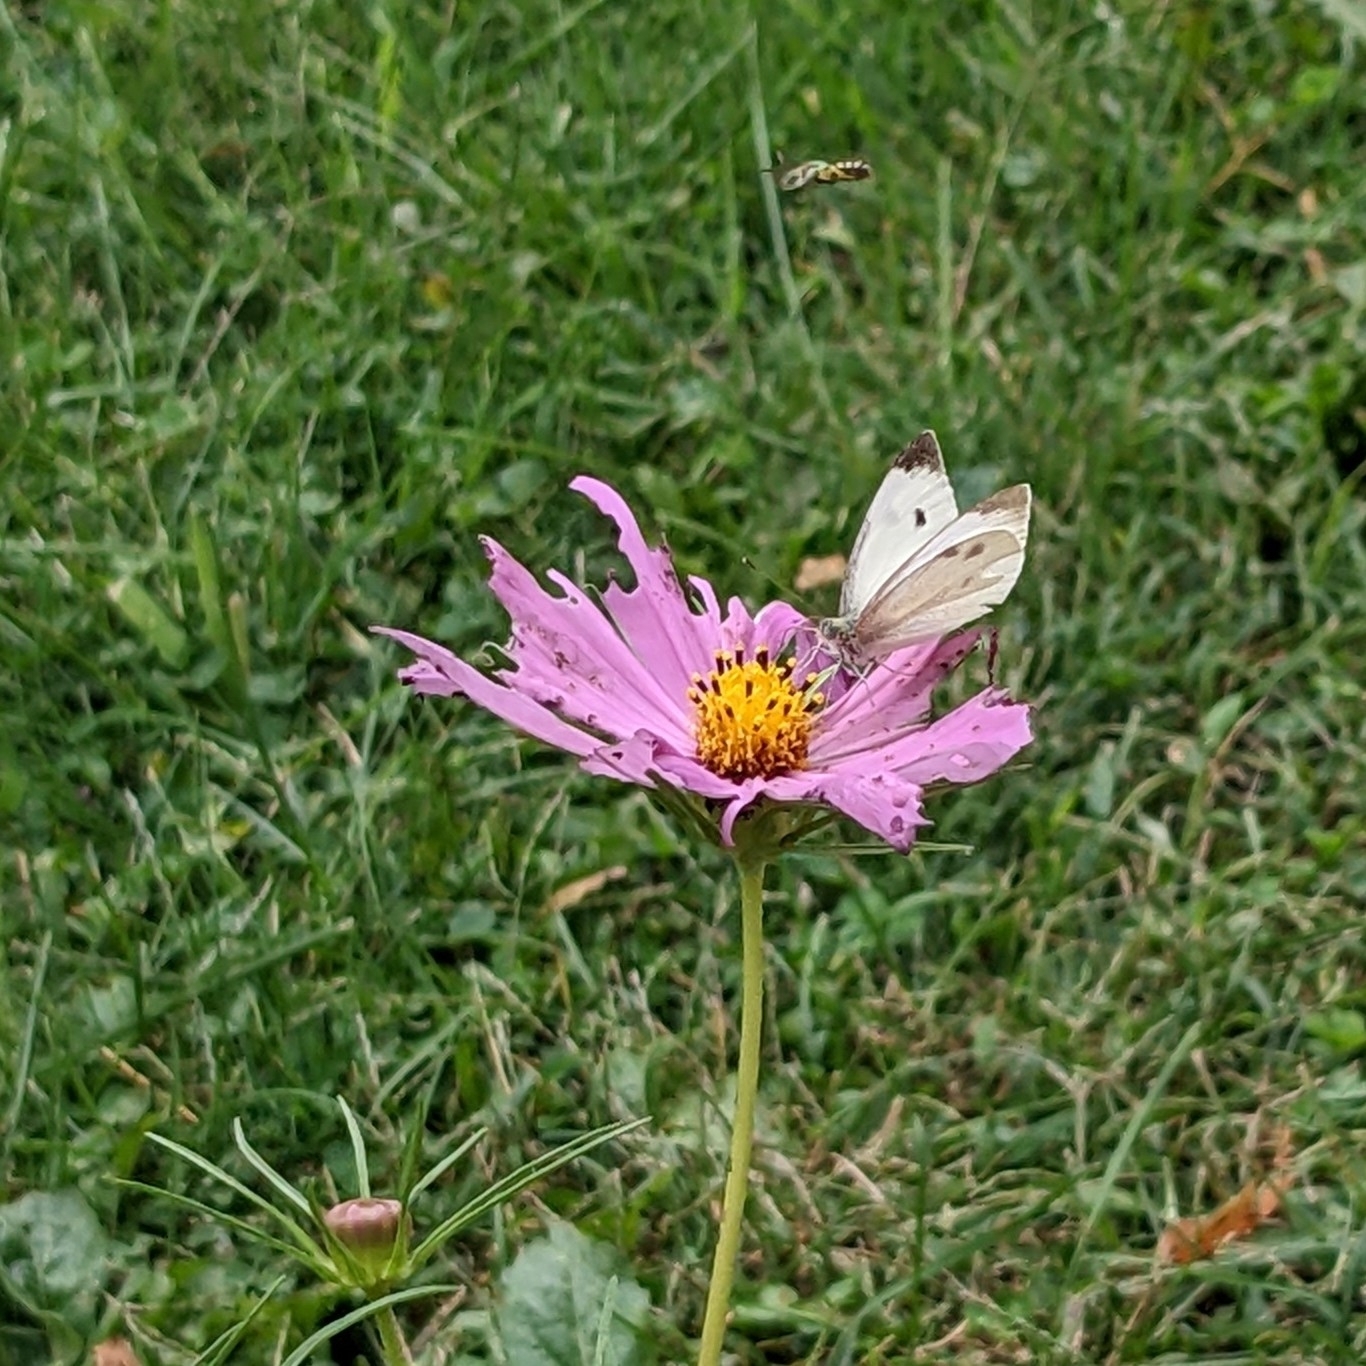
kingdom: Animalia
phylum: Arthropoda
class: Insecta
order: Lepidoptera
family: Pieridae
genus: Pieris
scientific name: Pieris rapae
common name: Small white
